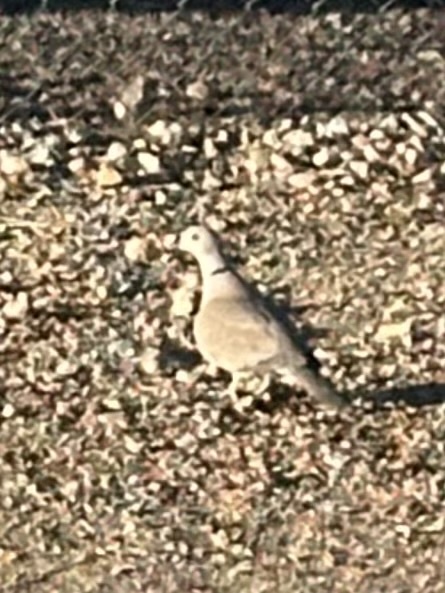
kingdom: Animalia
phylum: Chordata
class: Aves
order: Columbiformes
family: Columbidae
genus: Streptopelia
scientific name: Streptopelia decaocto
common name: Eurasian collared dove
